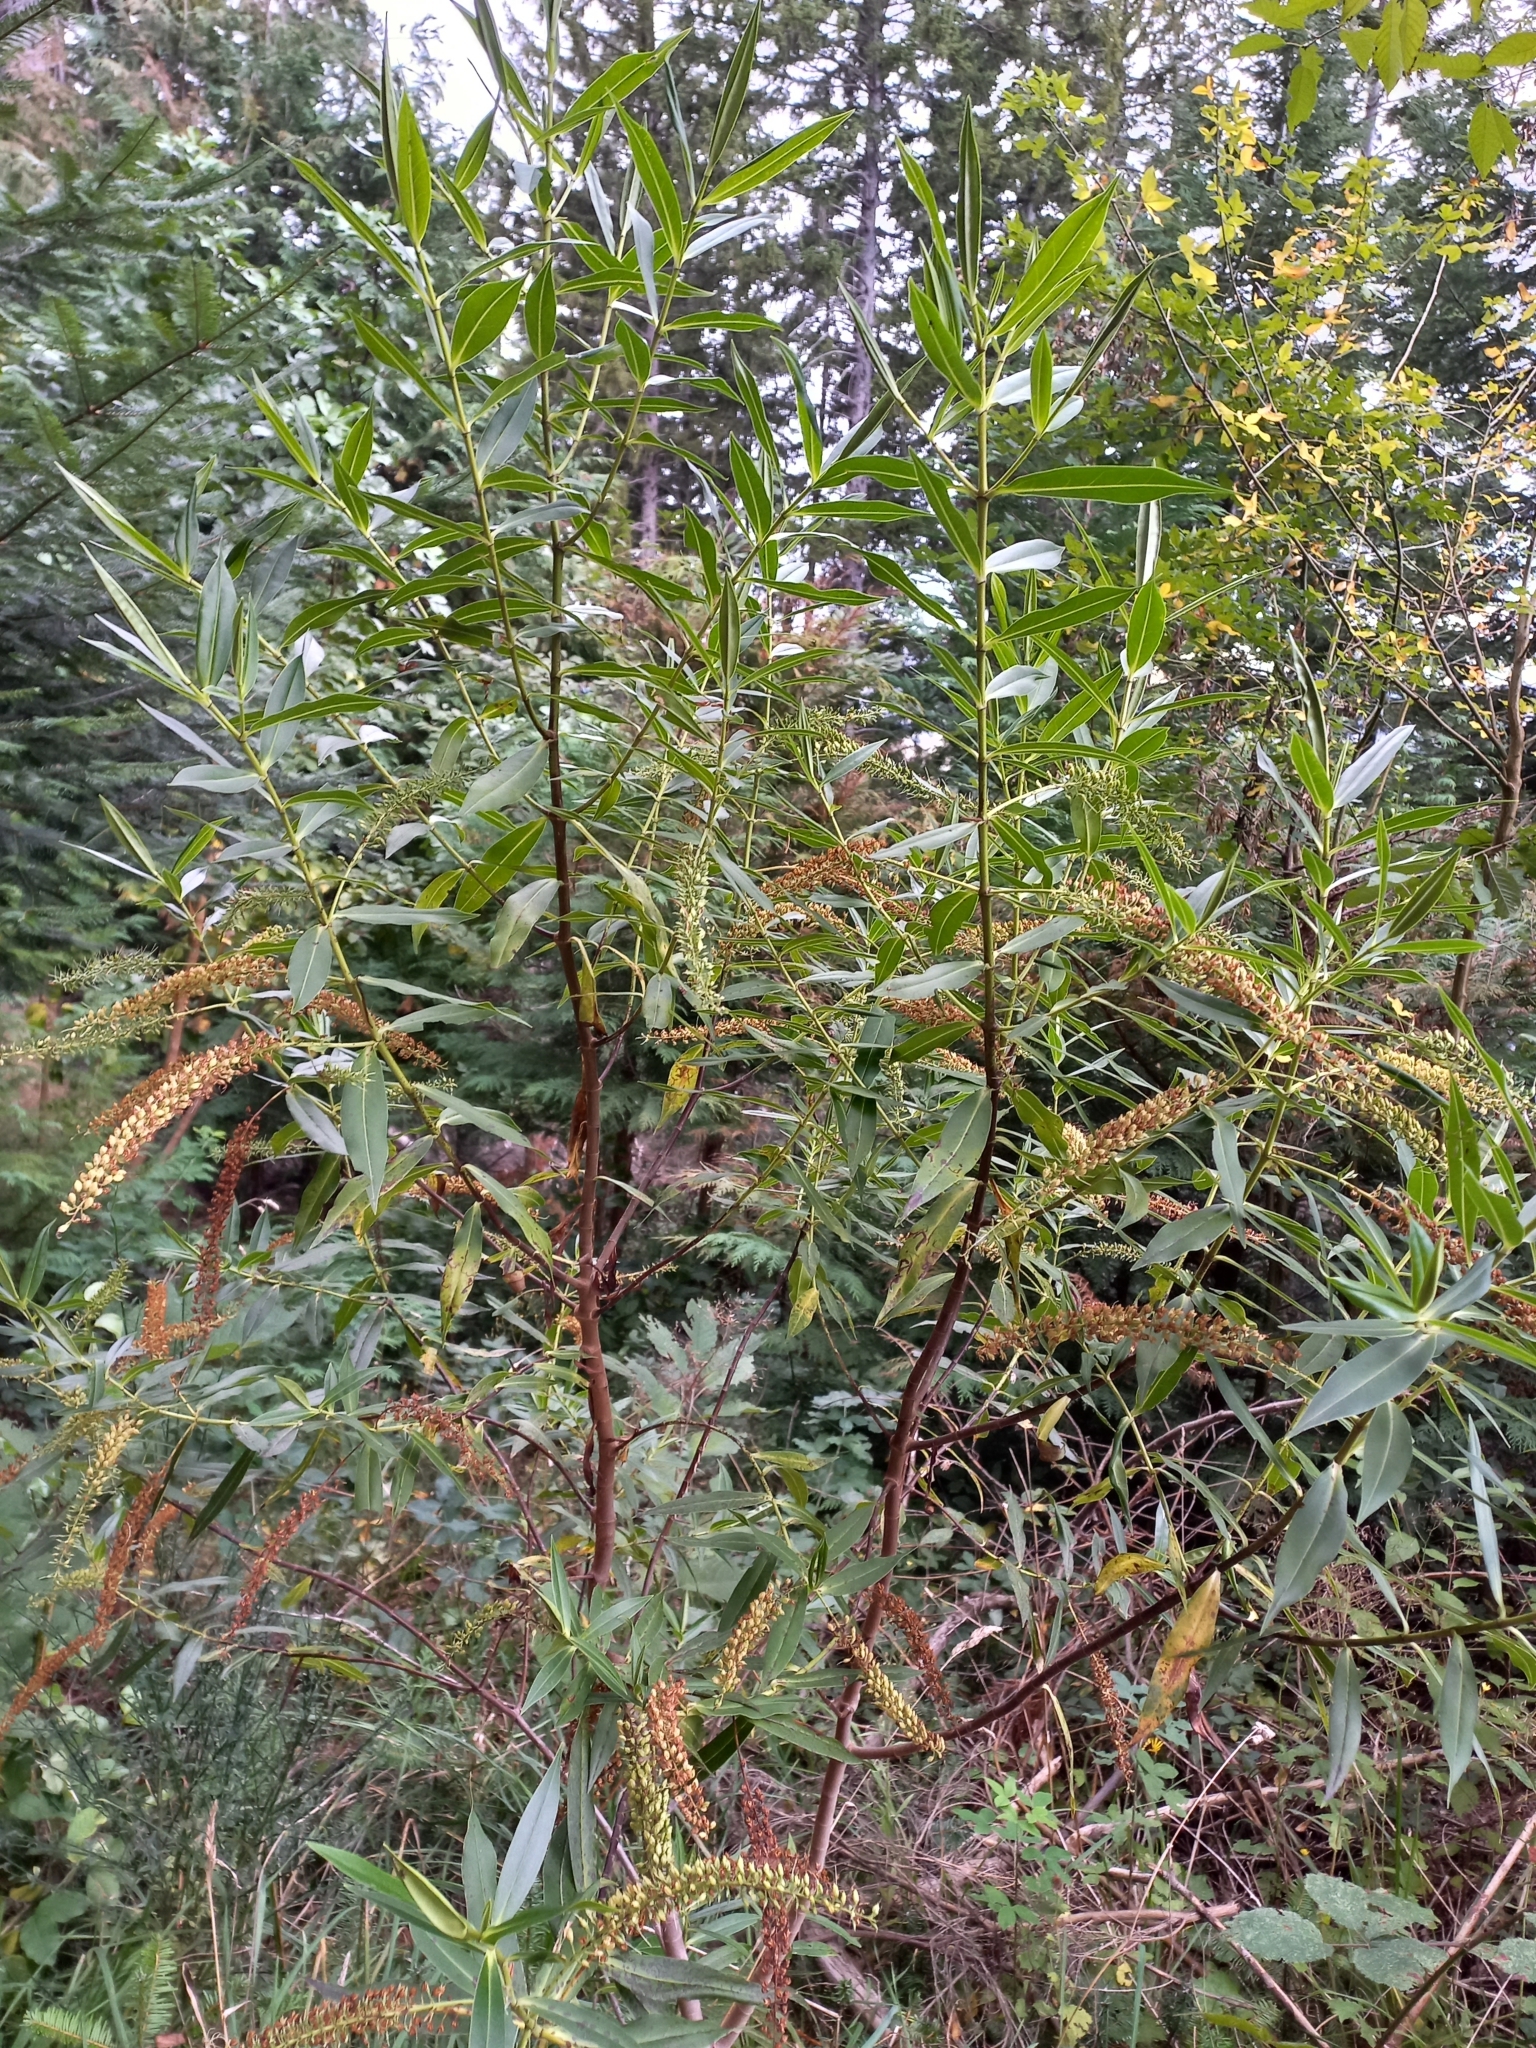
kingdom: Plantae
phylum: Tracheophyta
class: Magnoliopsida
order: Lamiales
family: Plantaginaceae
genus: Veronica
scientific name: Veronica salicifolia
